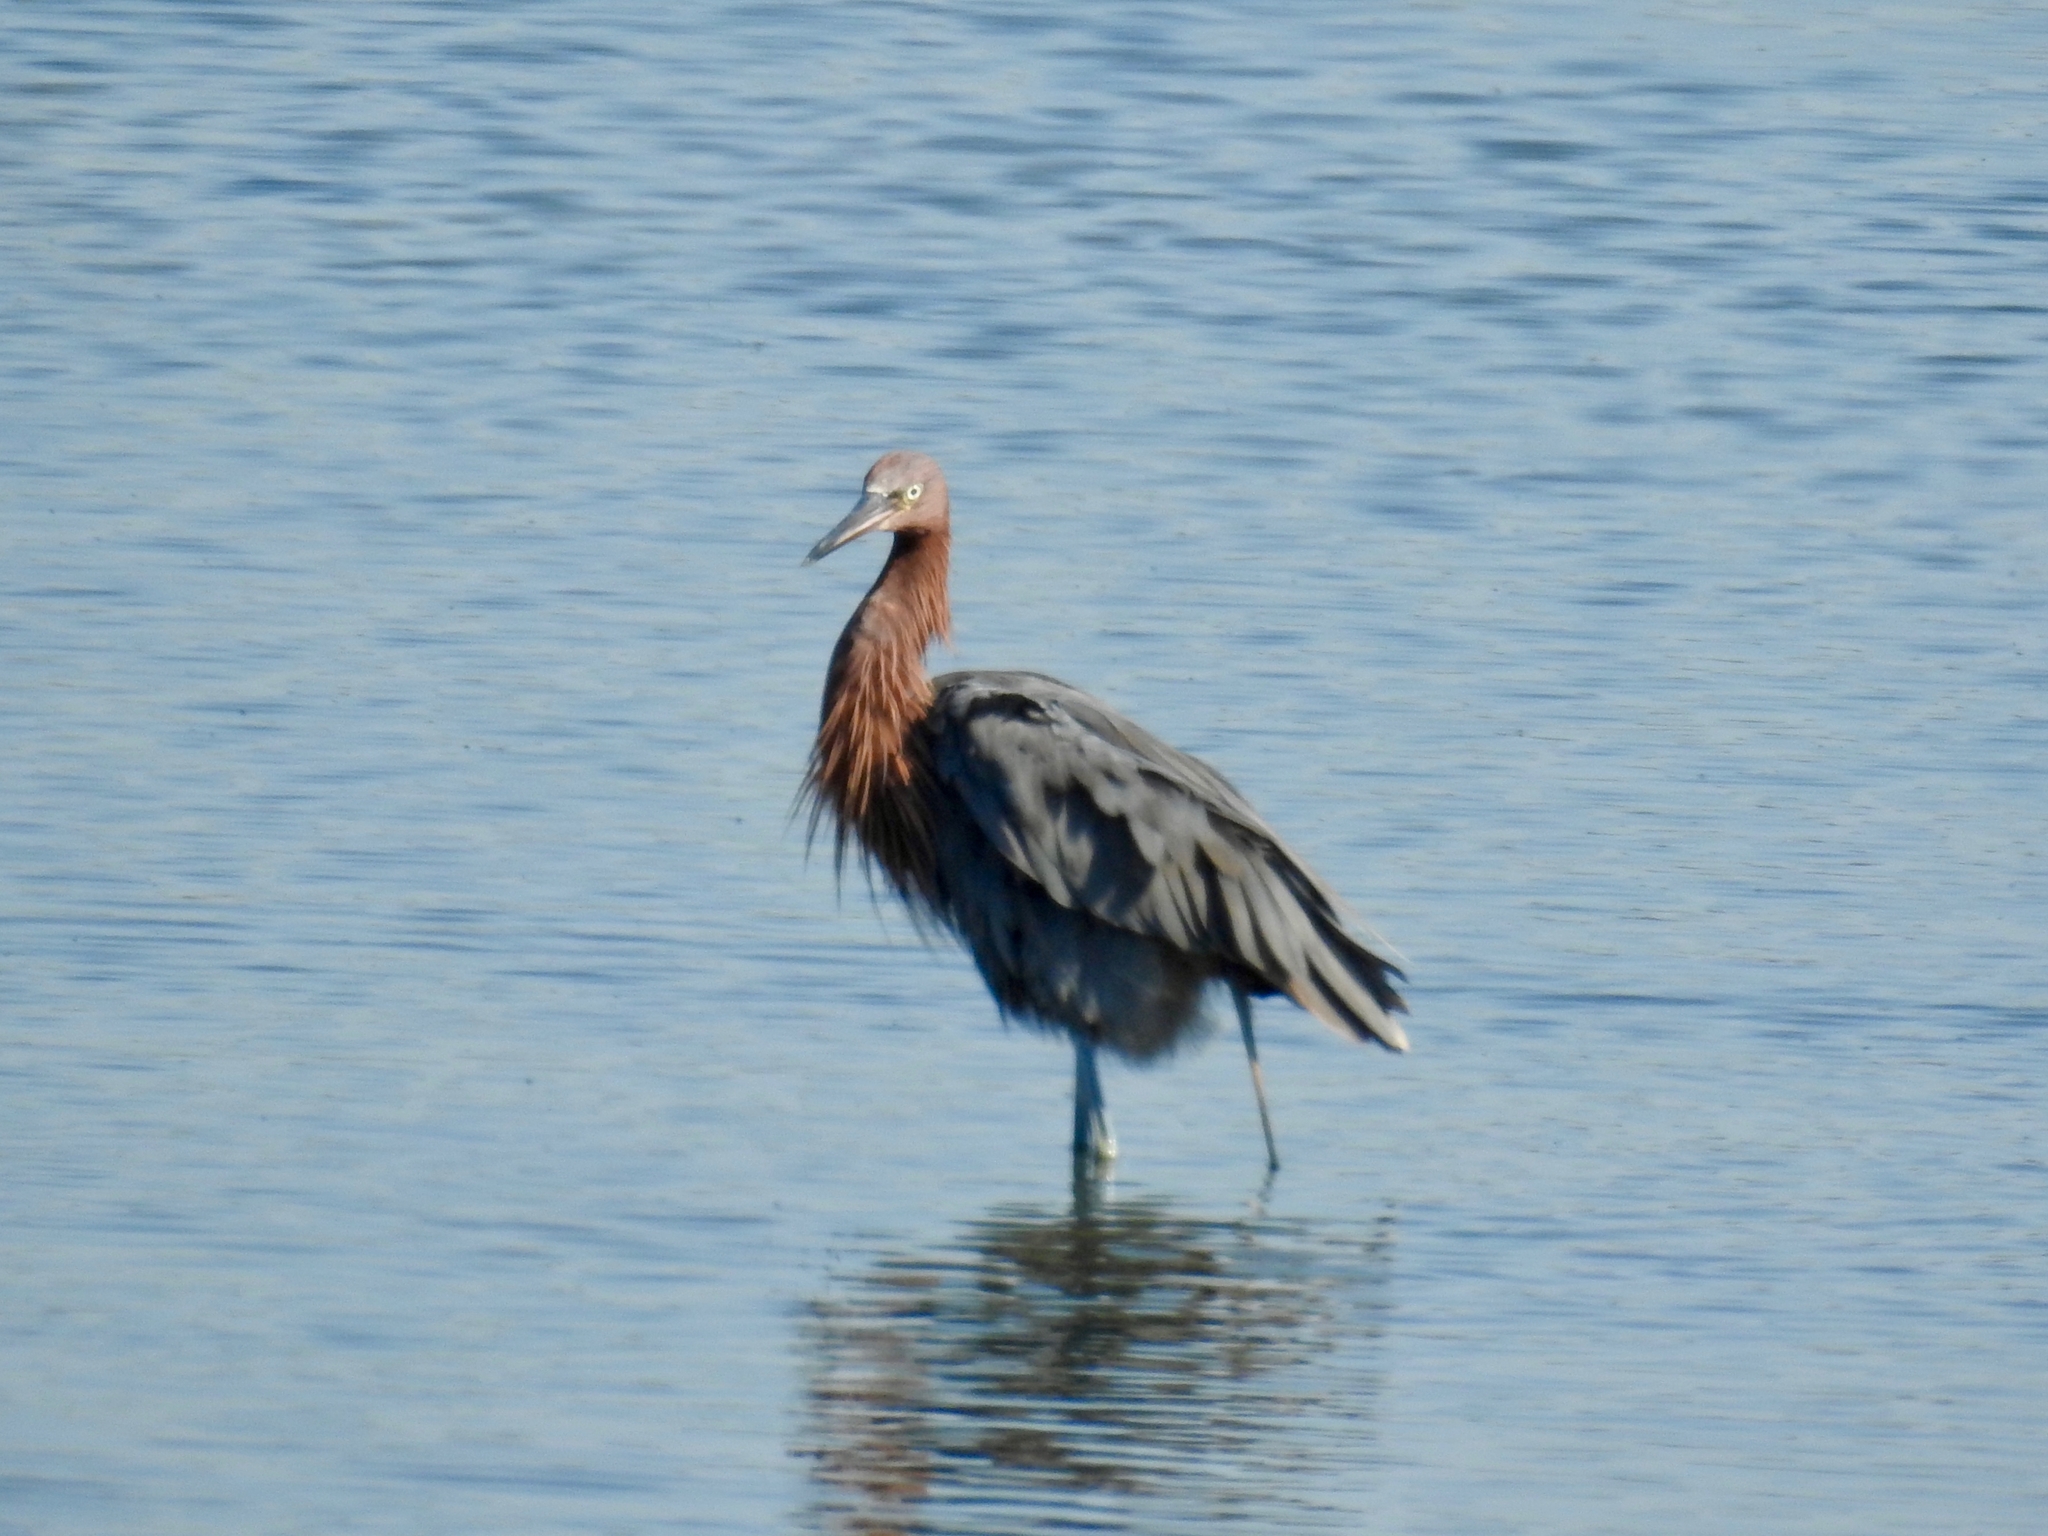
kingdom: Animalia
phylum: Chordata
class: Aves
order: Pelecaniformes
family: Ardeidae
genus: Egretta
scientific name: Egretta rufescens
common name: Reddish egret
